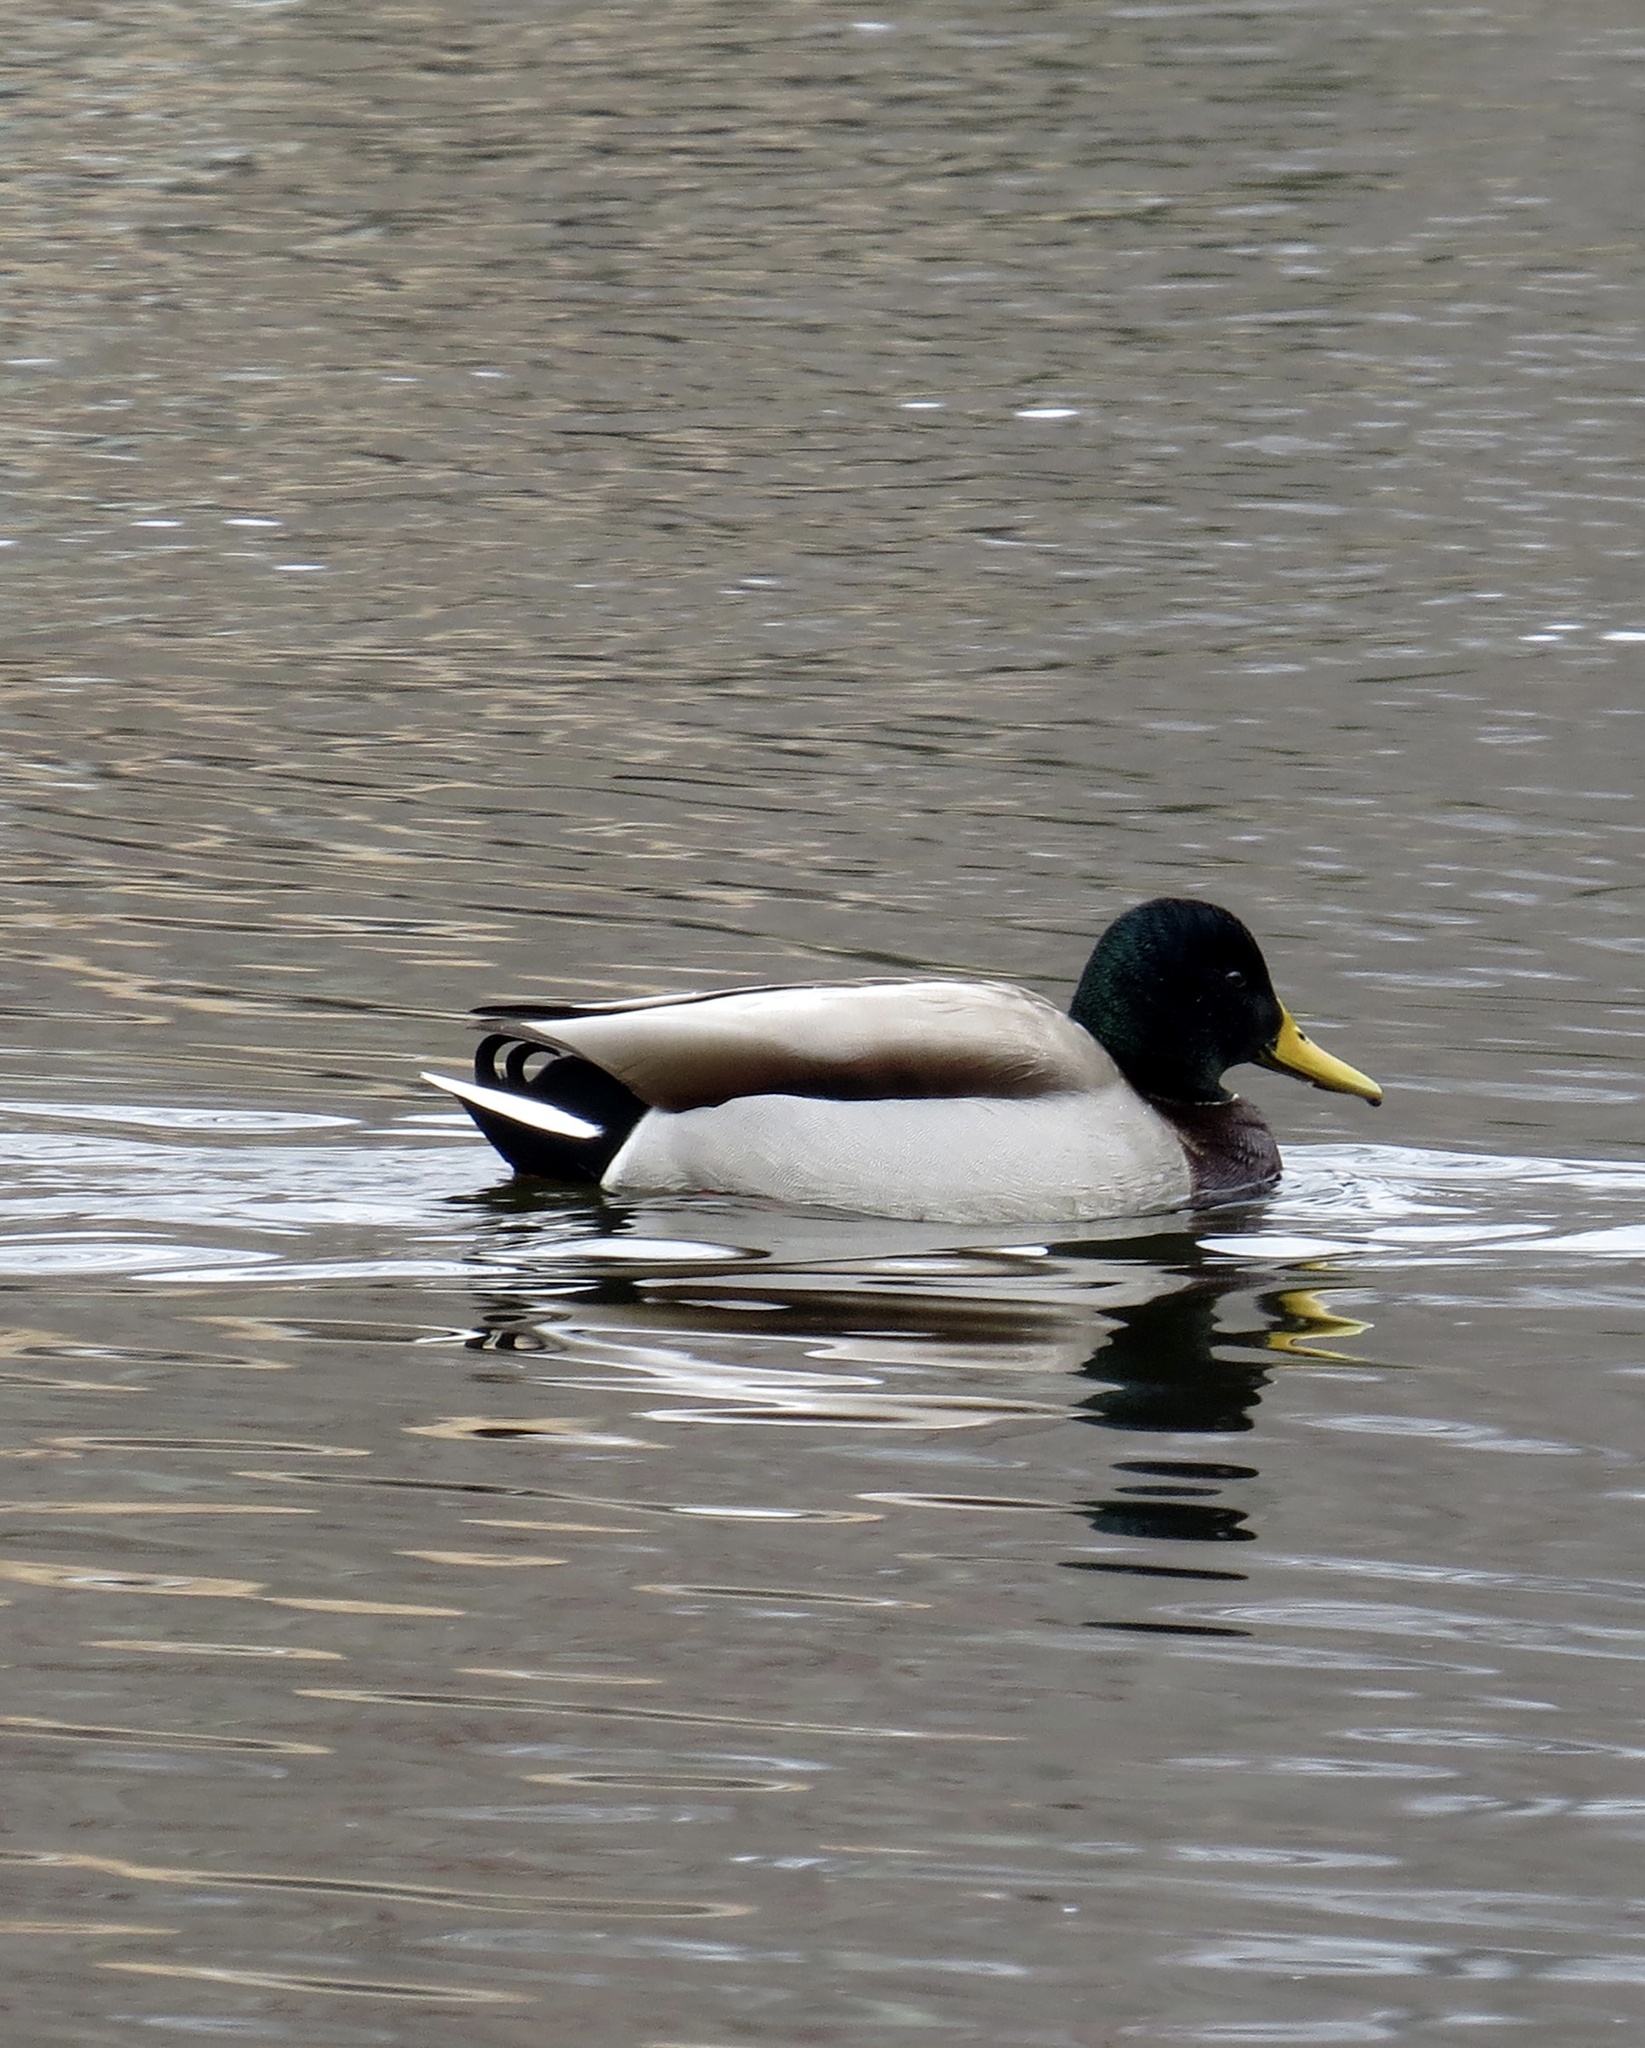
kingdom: Animalia
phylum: Chordata
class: Aves
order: Anseriformes
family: Anatidae
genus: Anas
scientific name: Anas platyrhynchos
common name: Mallard
